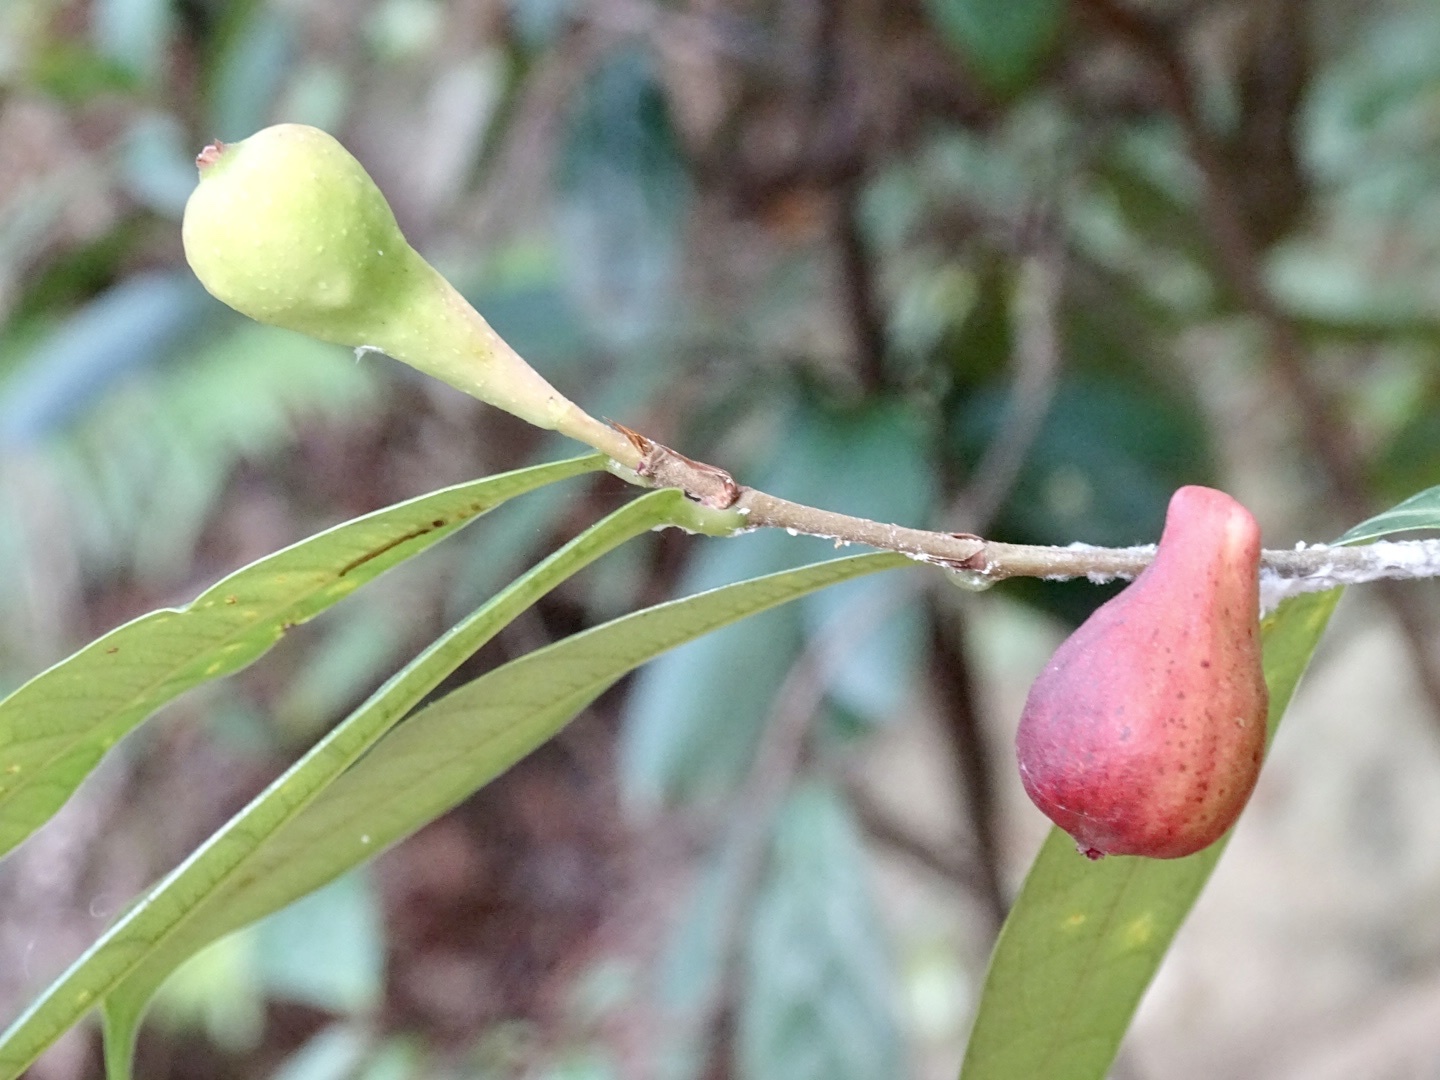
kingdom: Plantae
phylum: Tracheophyta
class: Magnoliopsida
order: Rosales
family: Moraceae
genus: Ficus
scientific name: Ficus pyriformis
